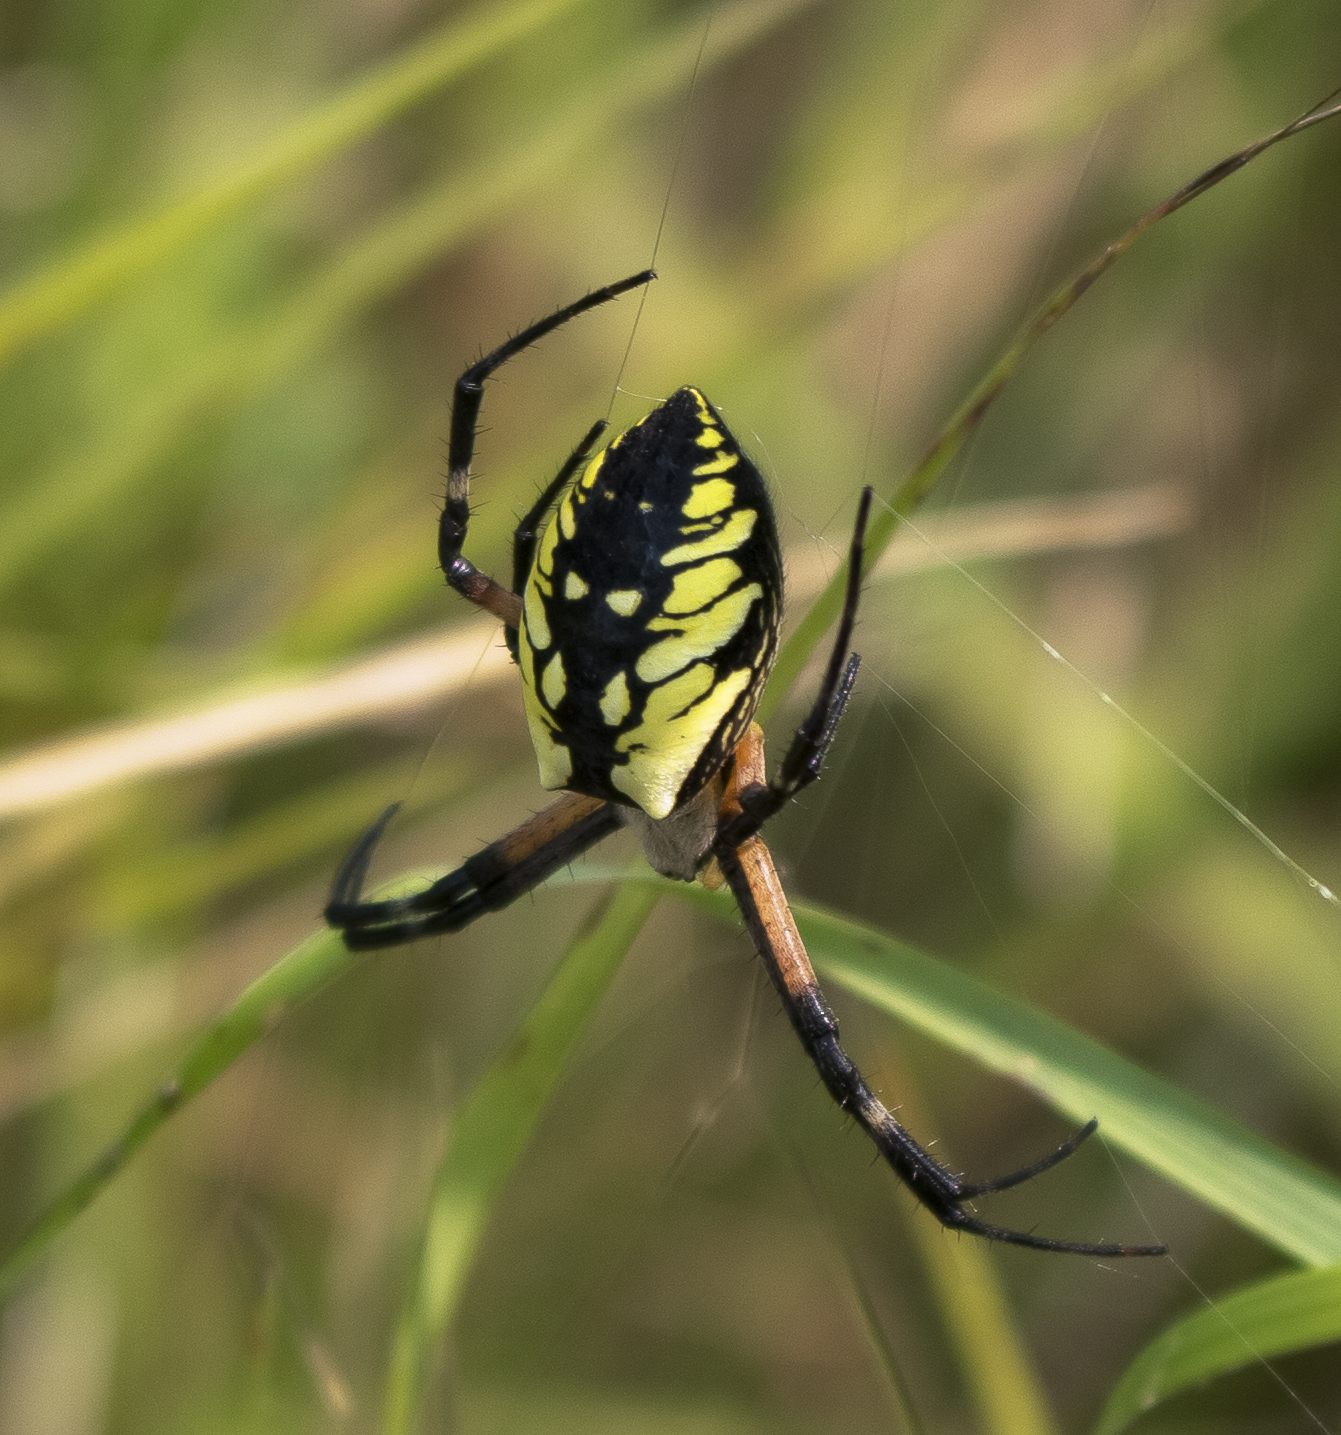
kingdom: Animalia
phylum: Arthropoda
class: Arachnida
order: Araneae
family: Araneidae
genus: Argiope
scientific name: Argiope aurantia
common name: Orb weavers
